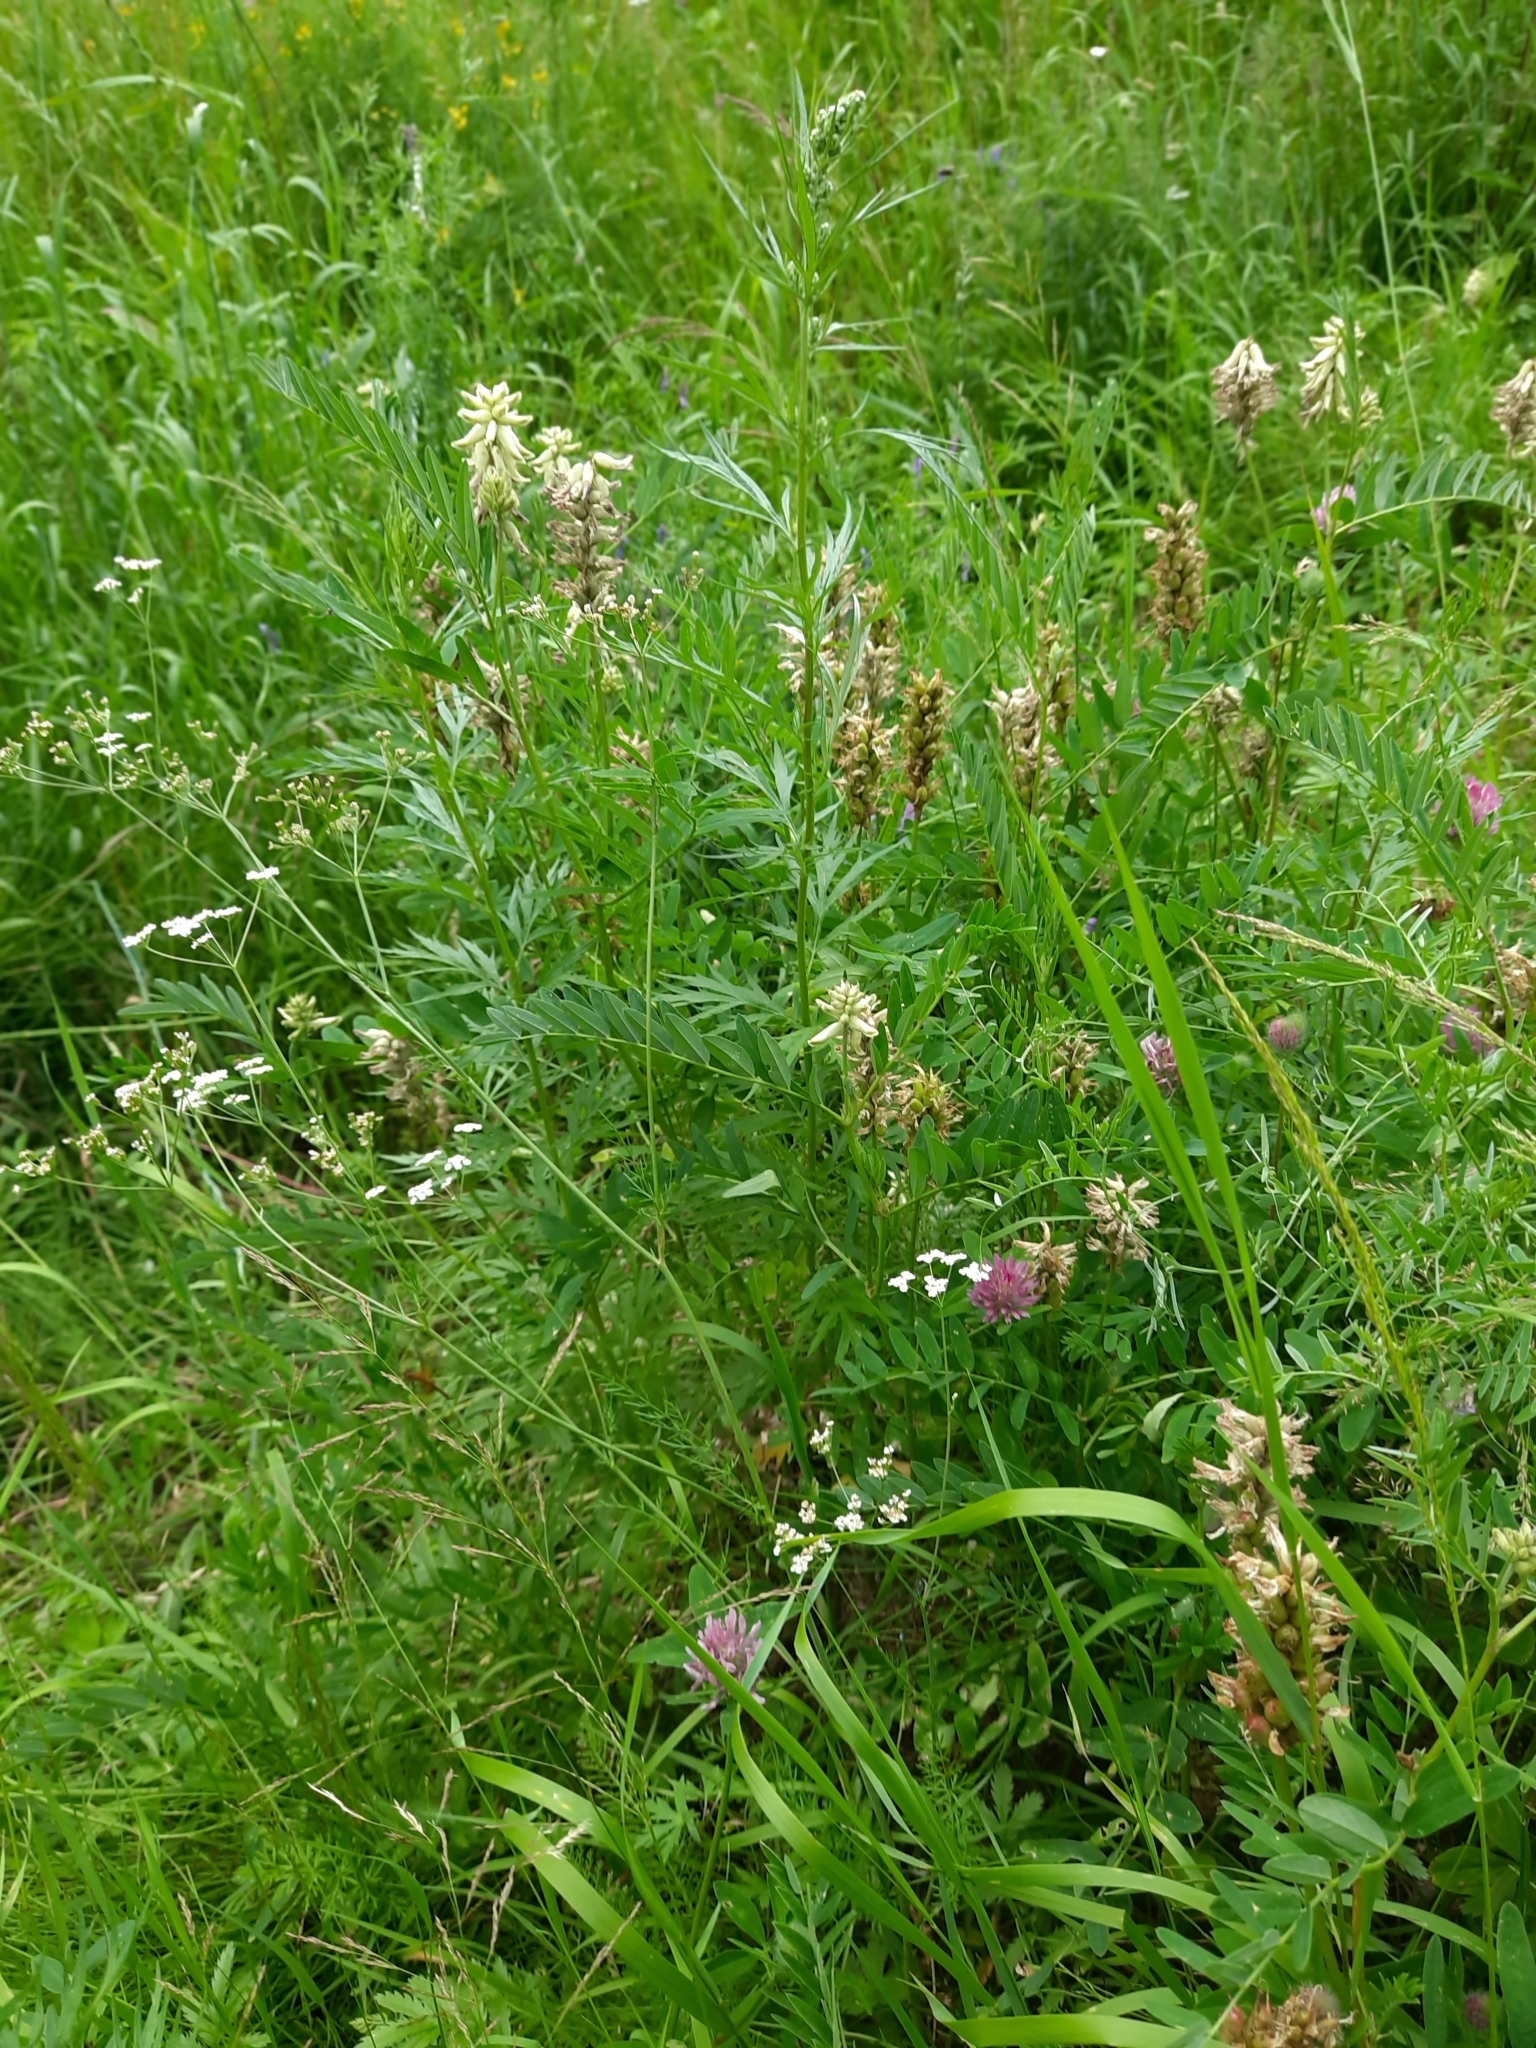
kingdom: Plantae
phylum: Tracheophyta
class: Magnoliopsida
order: Fabales
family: Fabaceae
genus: Astragalus
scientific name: Astragalus uliginosus
